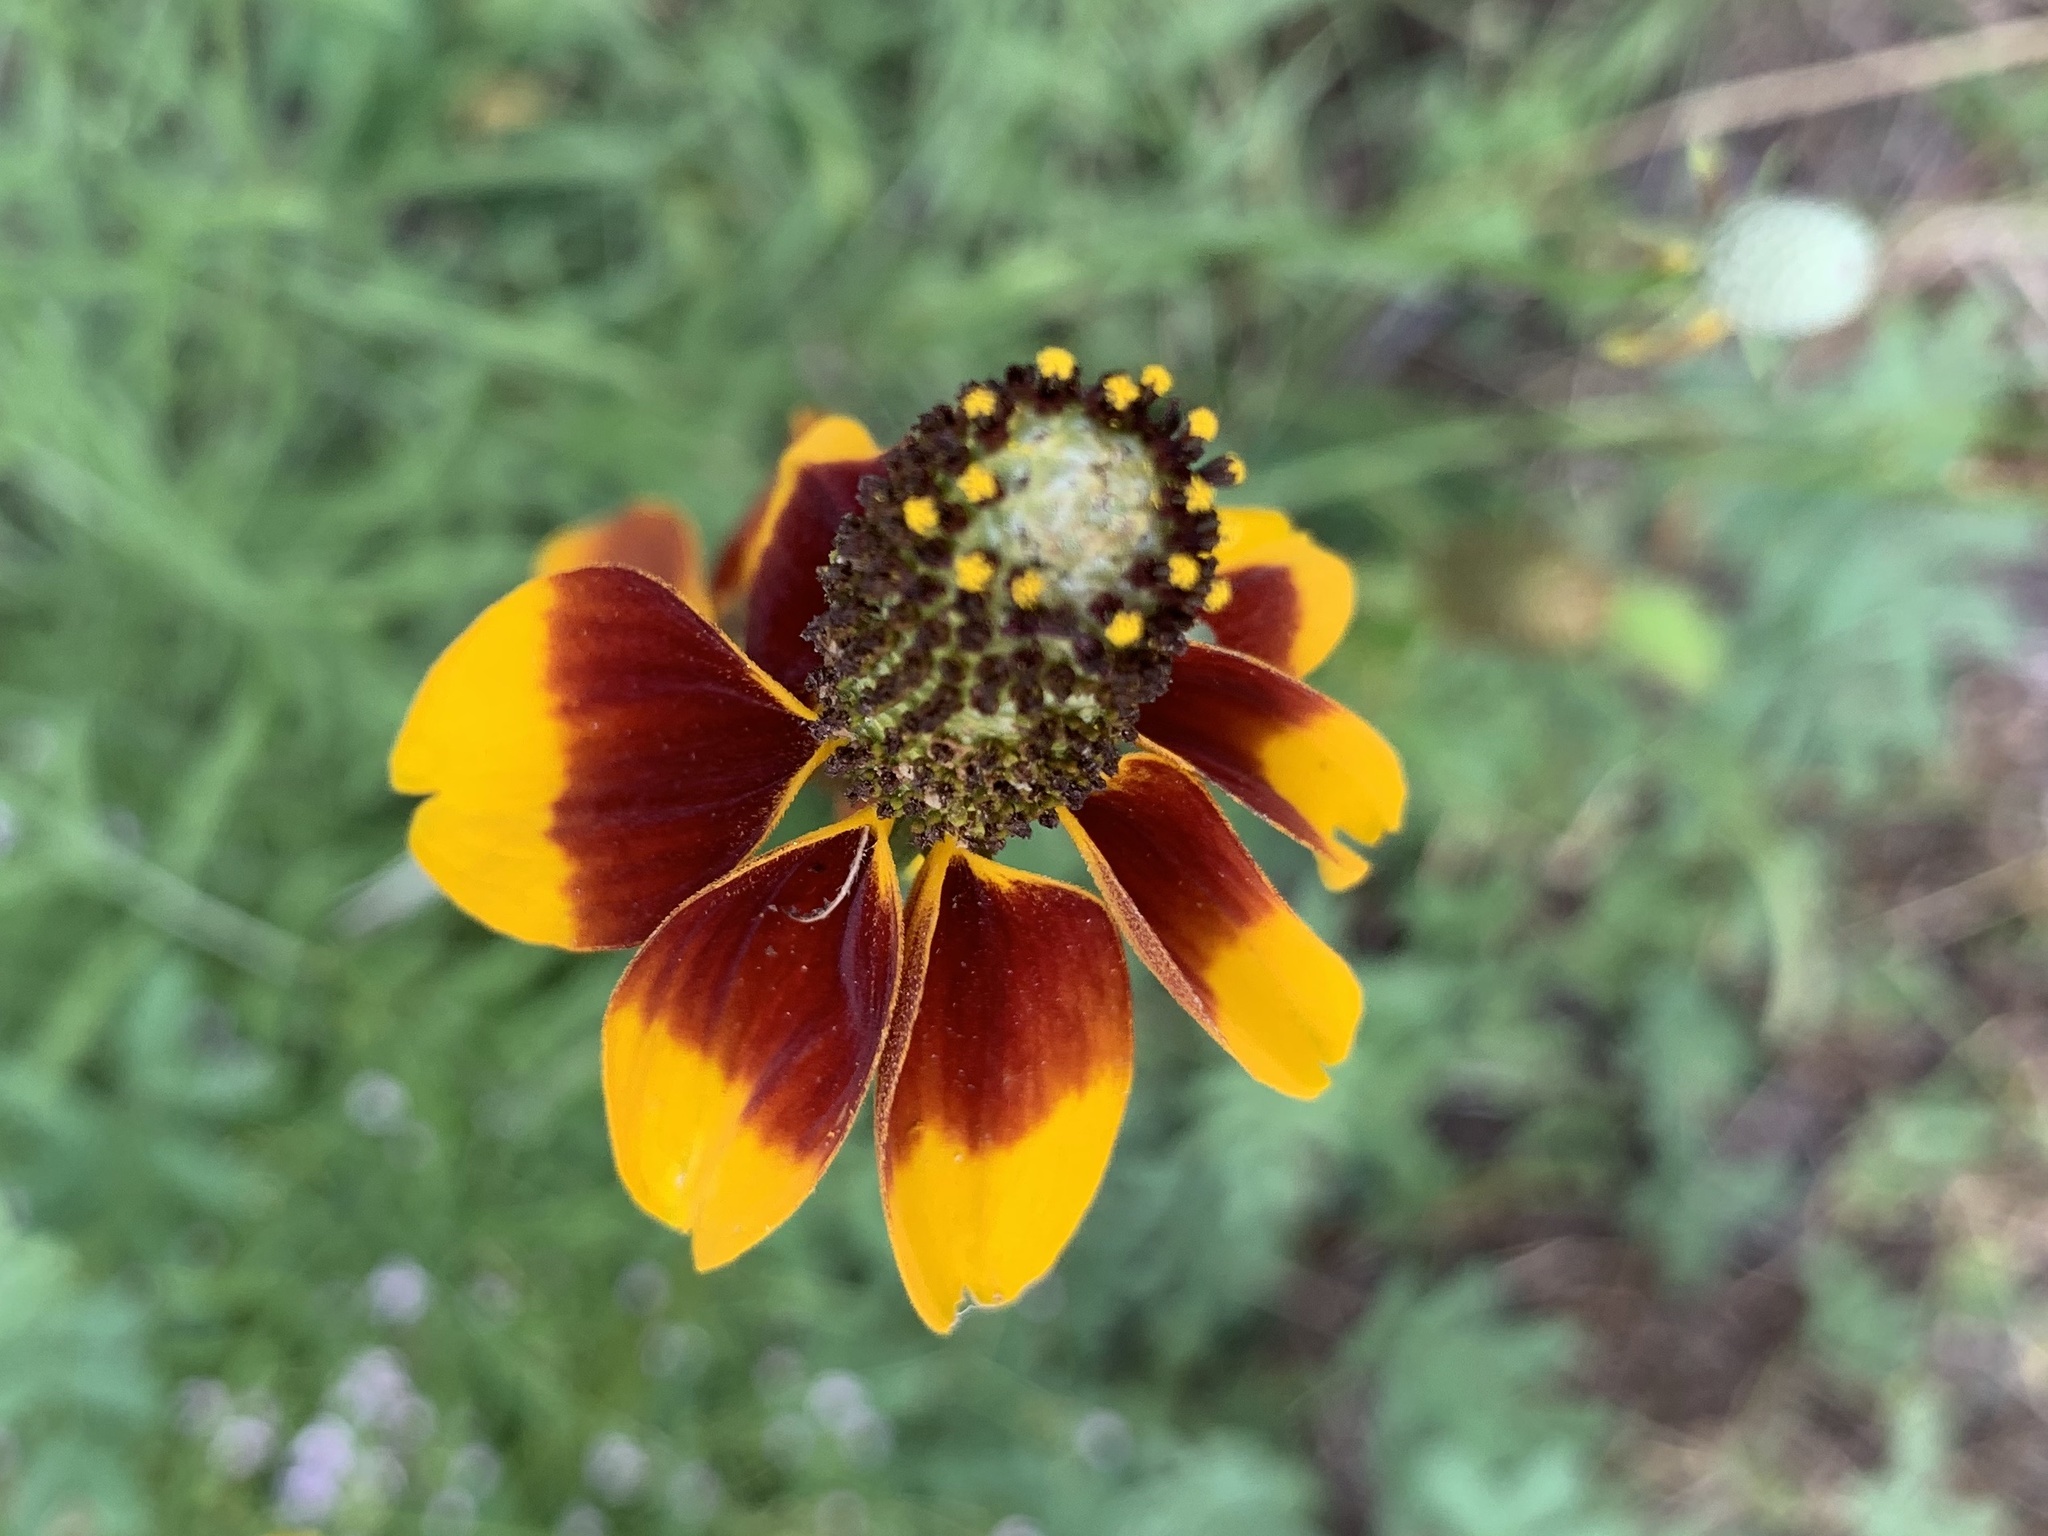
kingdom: Plantae
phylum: Tracheophyta
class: Magnoliopsida
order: Asterales
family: Asteraceae
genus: Ratibida
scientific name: Ratibida columnifera
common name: Prairie coneflower
